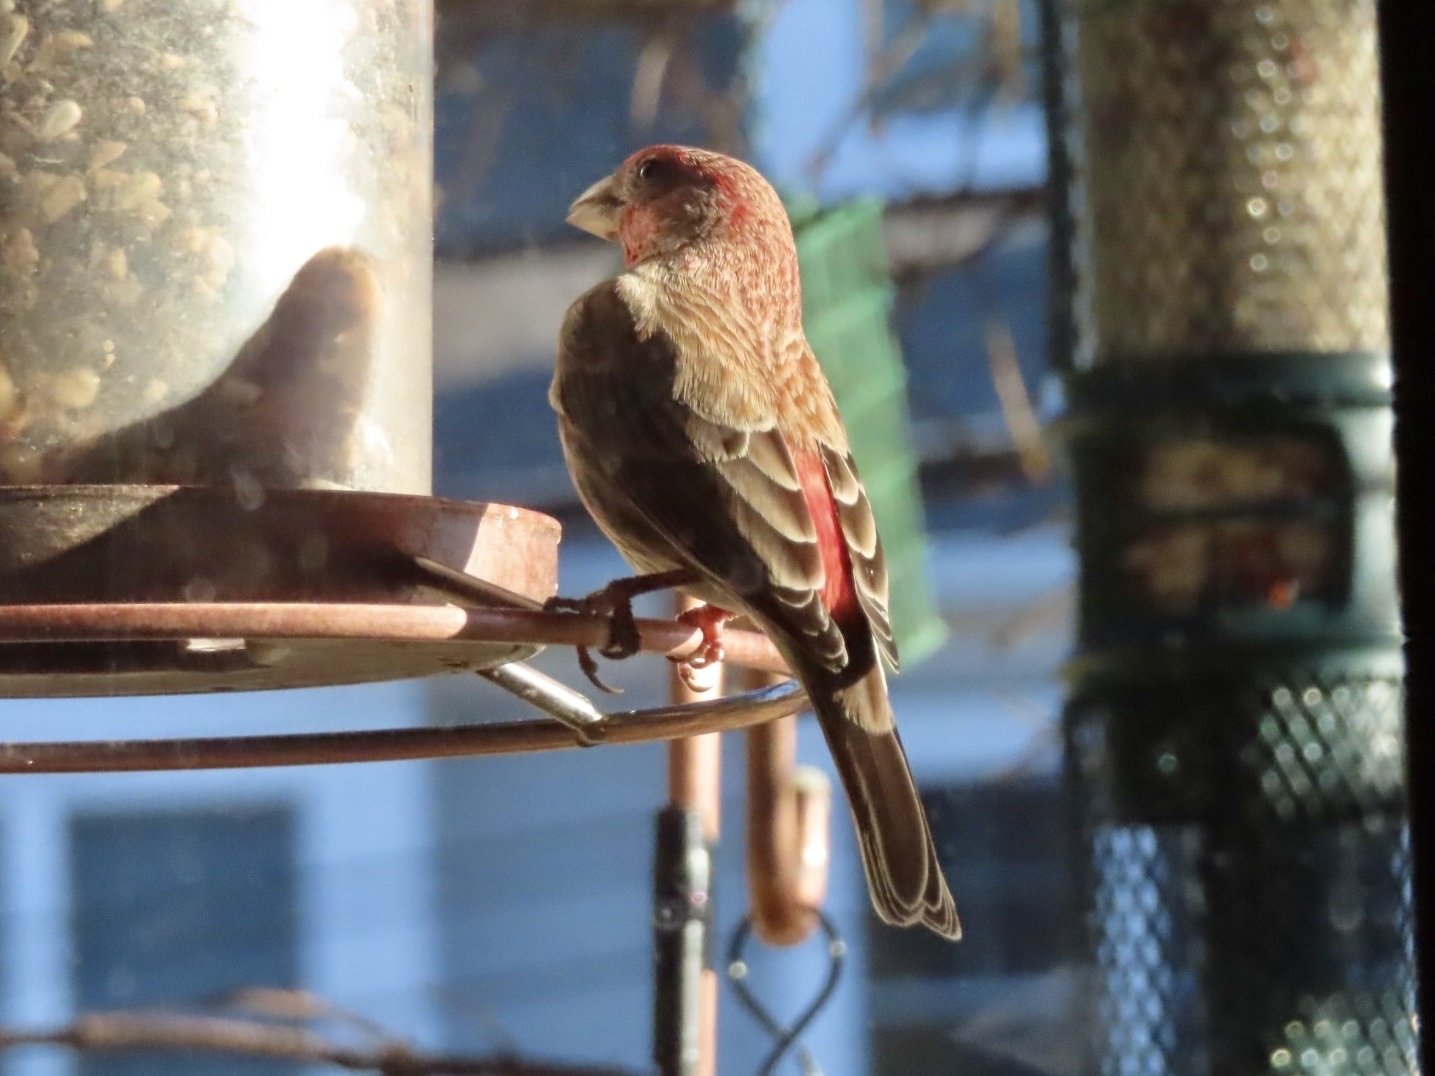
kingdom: Animalia
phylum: Chordata
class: Aves
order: Passeriformes
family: Fringillidae
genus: Haemorhous
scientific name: Haemorhous mexicanus
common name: House finch
